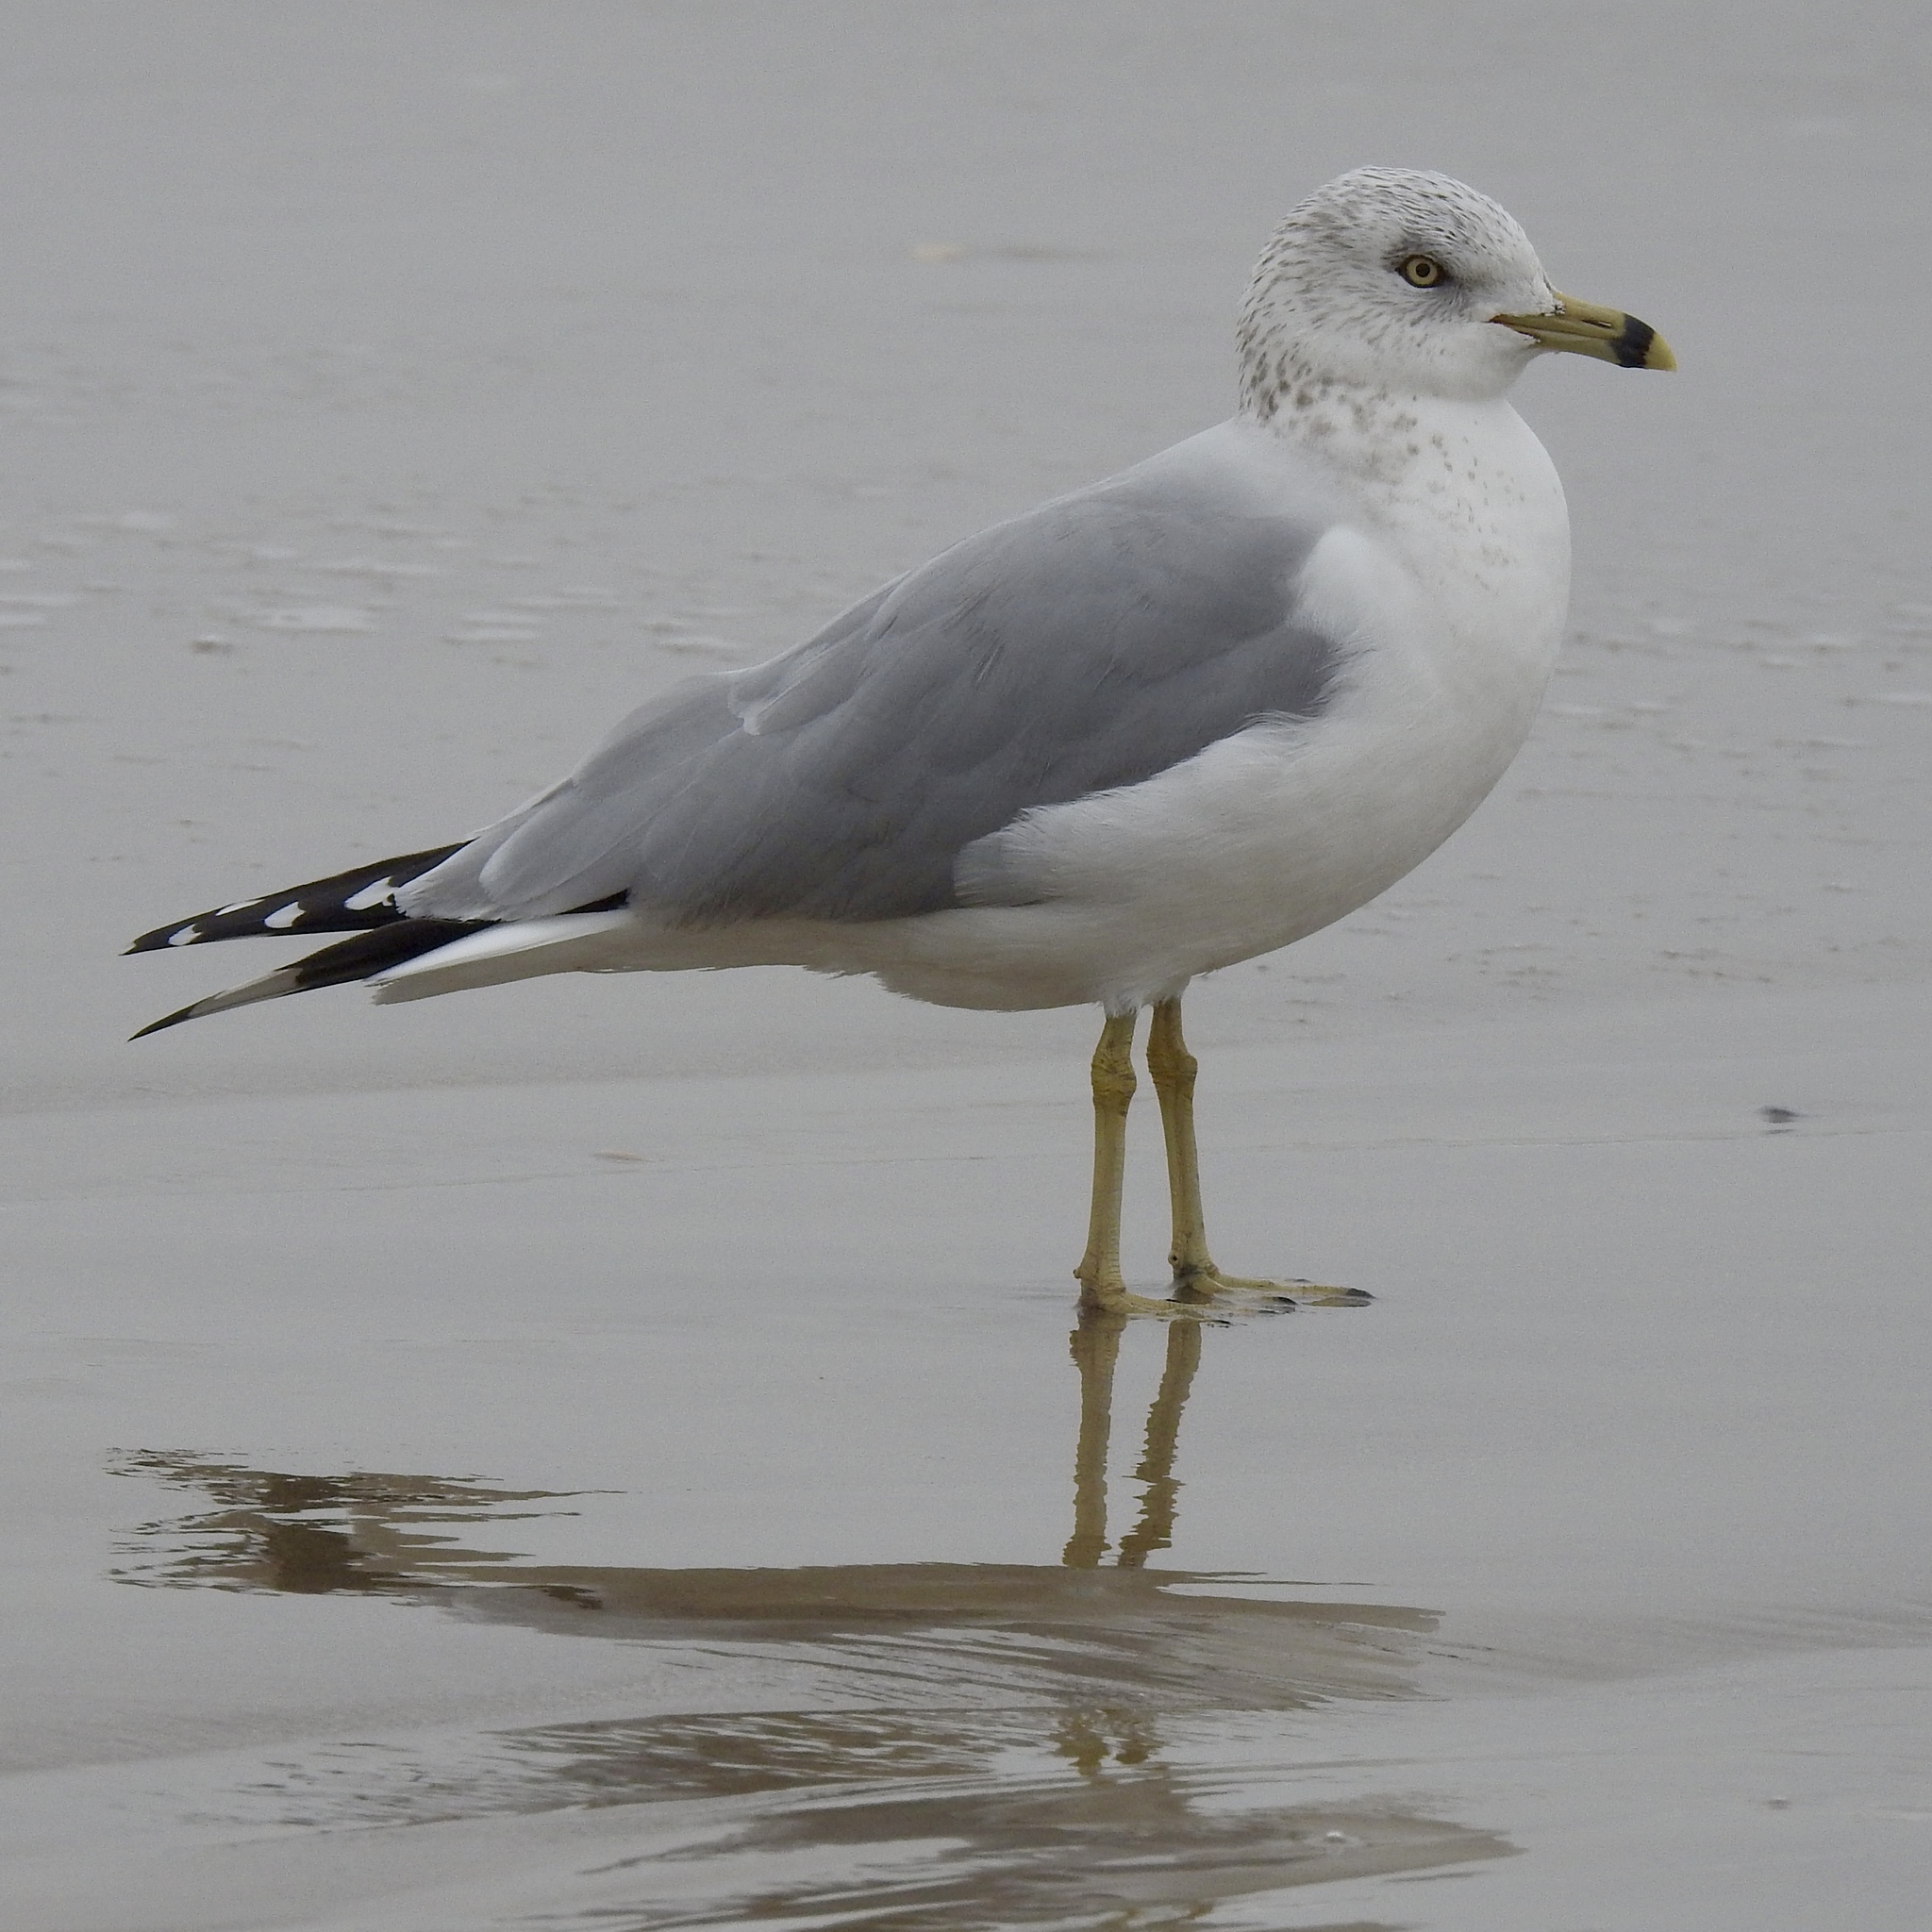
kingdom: Animalia
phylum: Chordata
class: Aves
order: Charadriiformes
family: Laridae
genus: Larus
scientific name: Larus delawarensis
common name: Ring-billed gull
